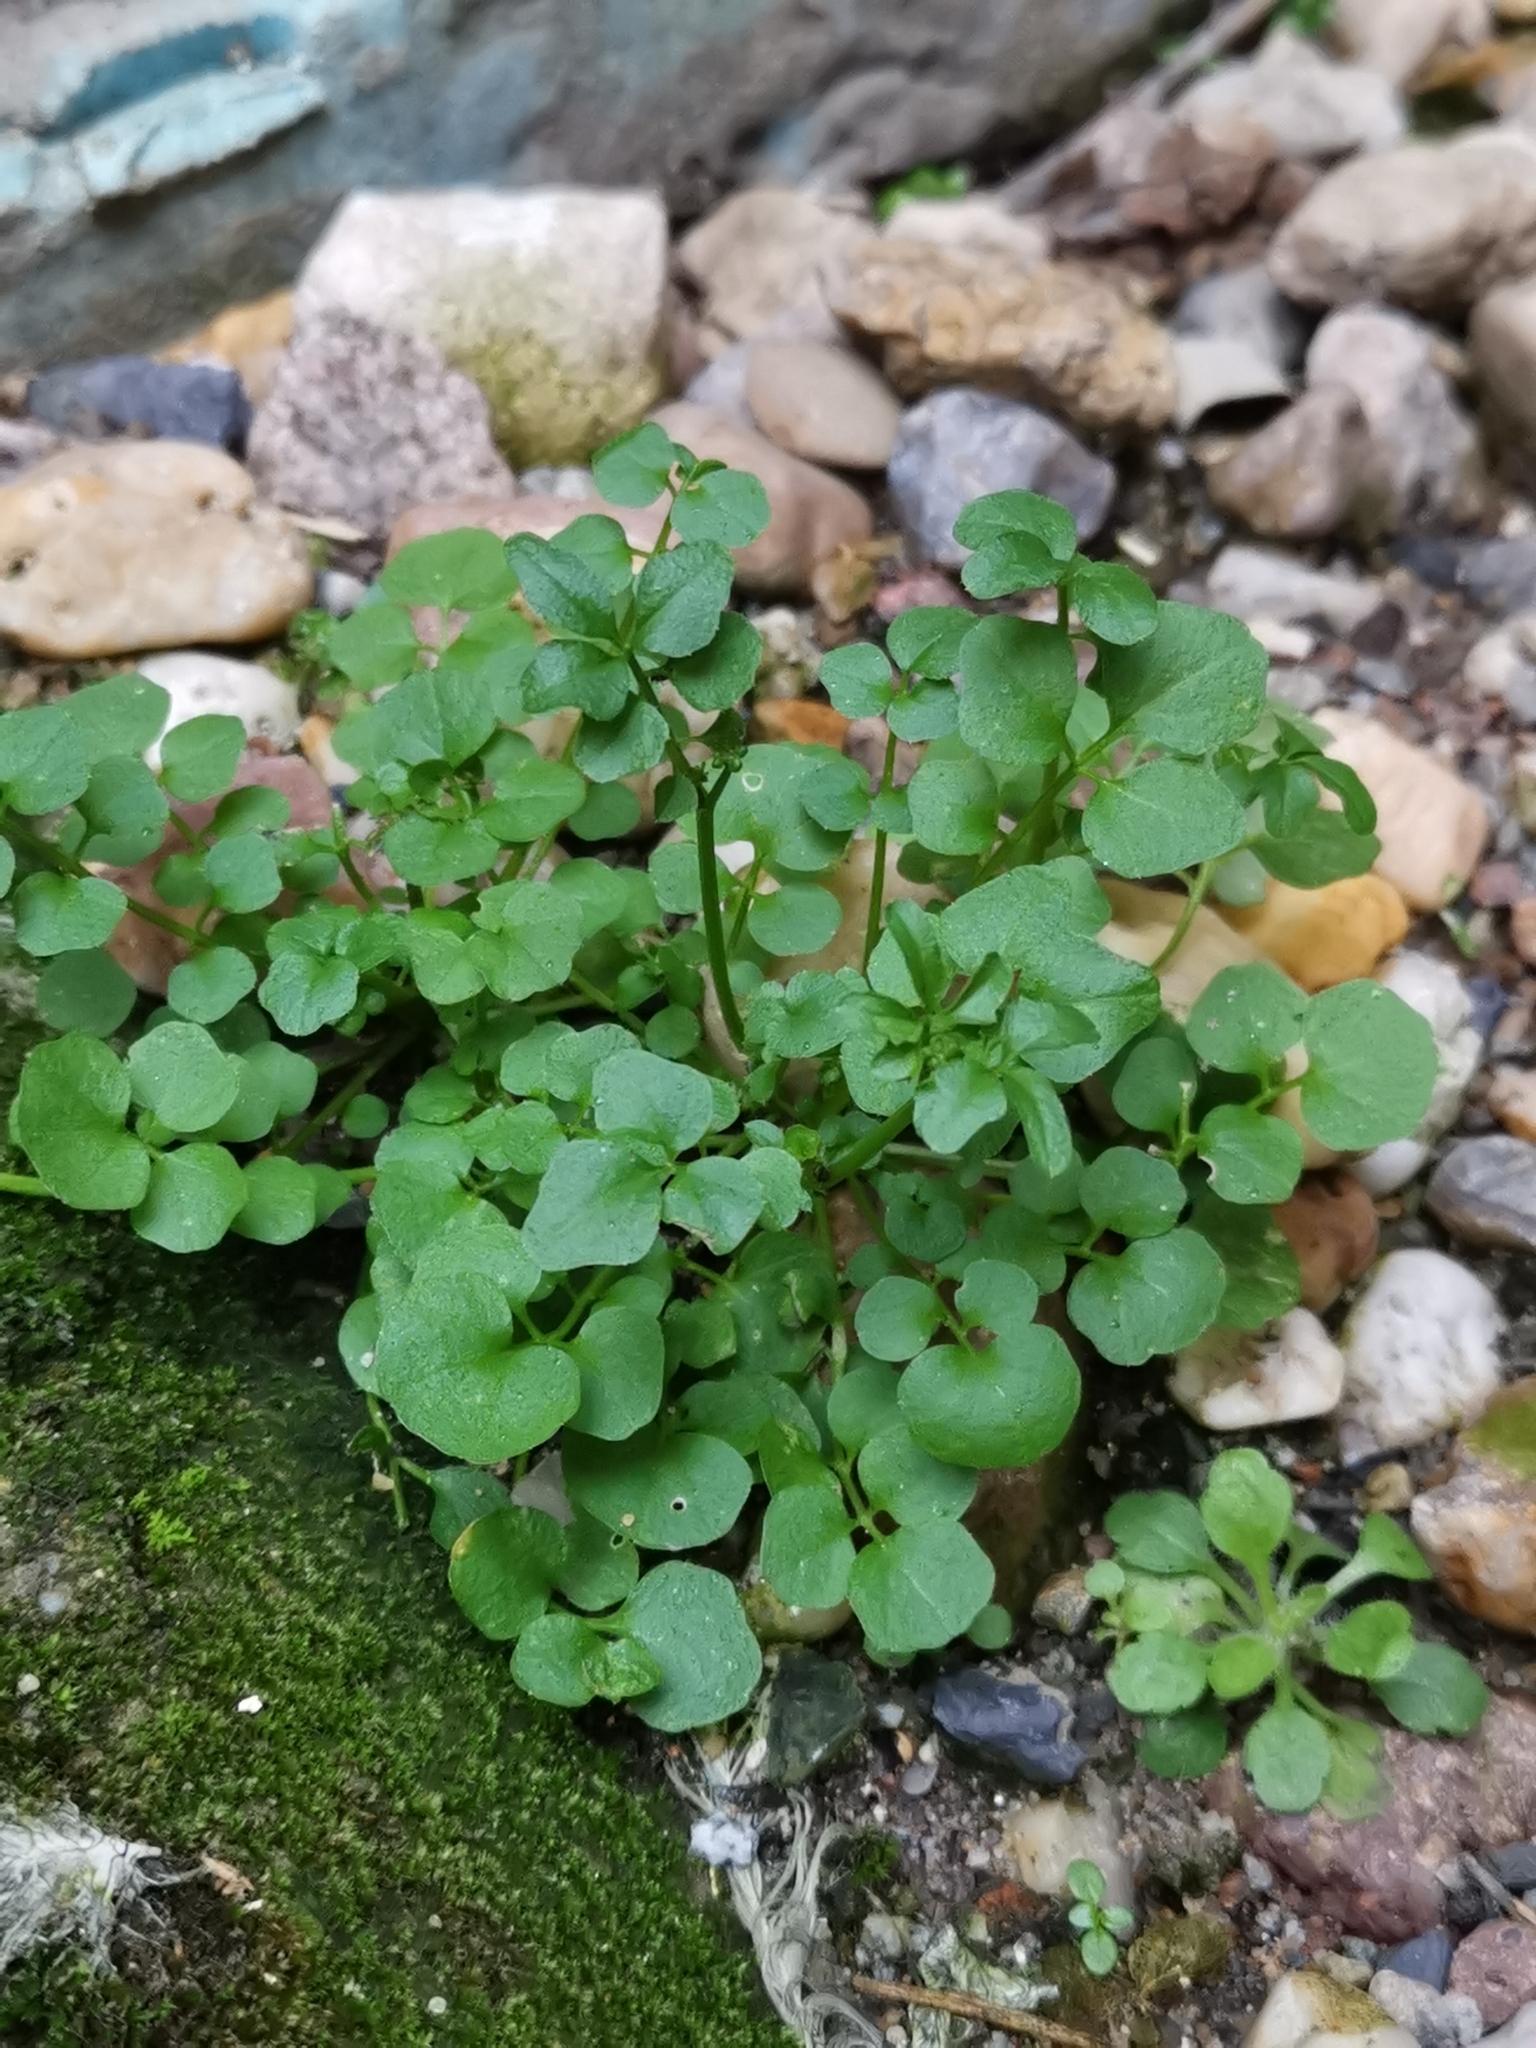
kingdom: Plantae
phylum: Tracheophyta
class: Magnoliopsida
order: Brassicales
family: Brassicaceae
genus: Cardamine
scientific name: Cardamine hirsuta
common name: Hairy bittercress
